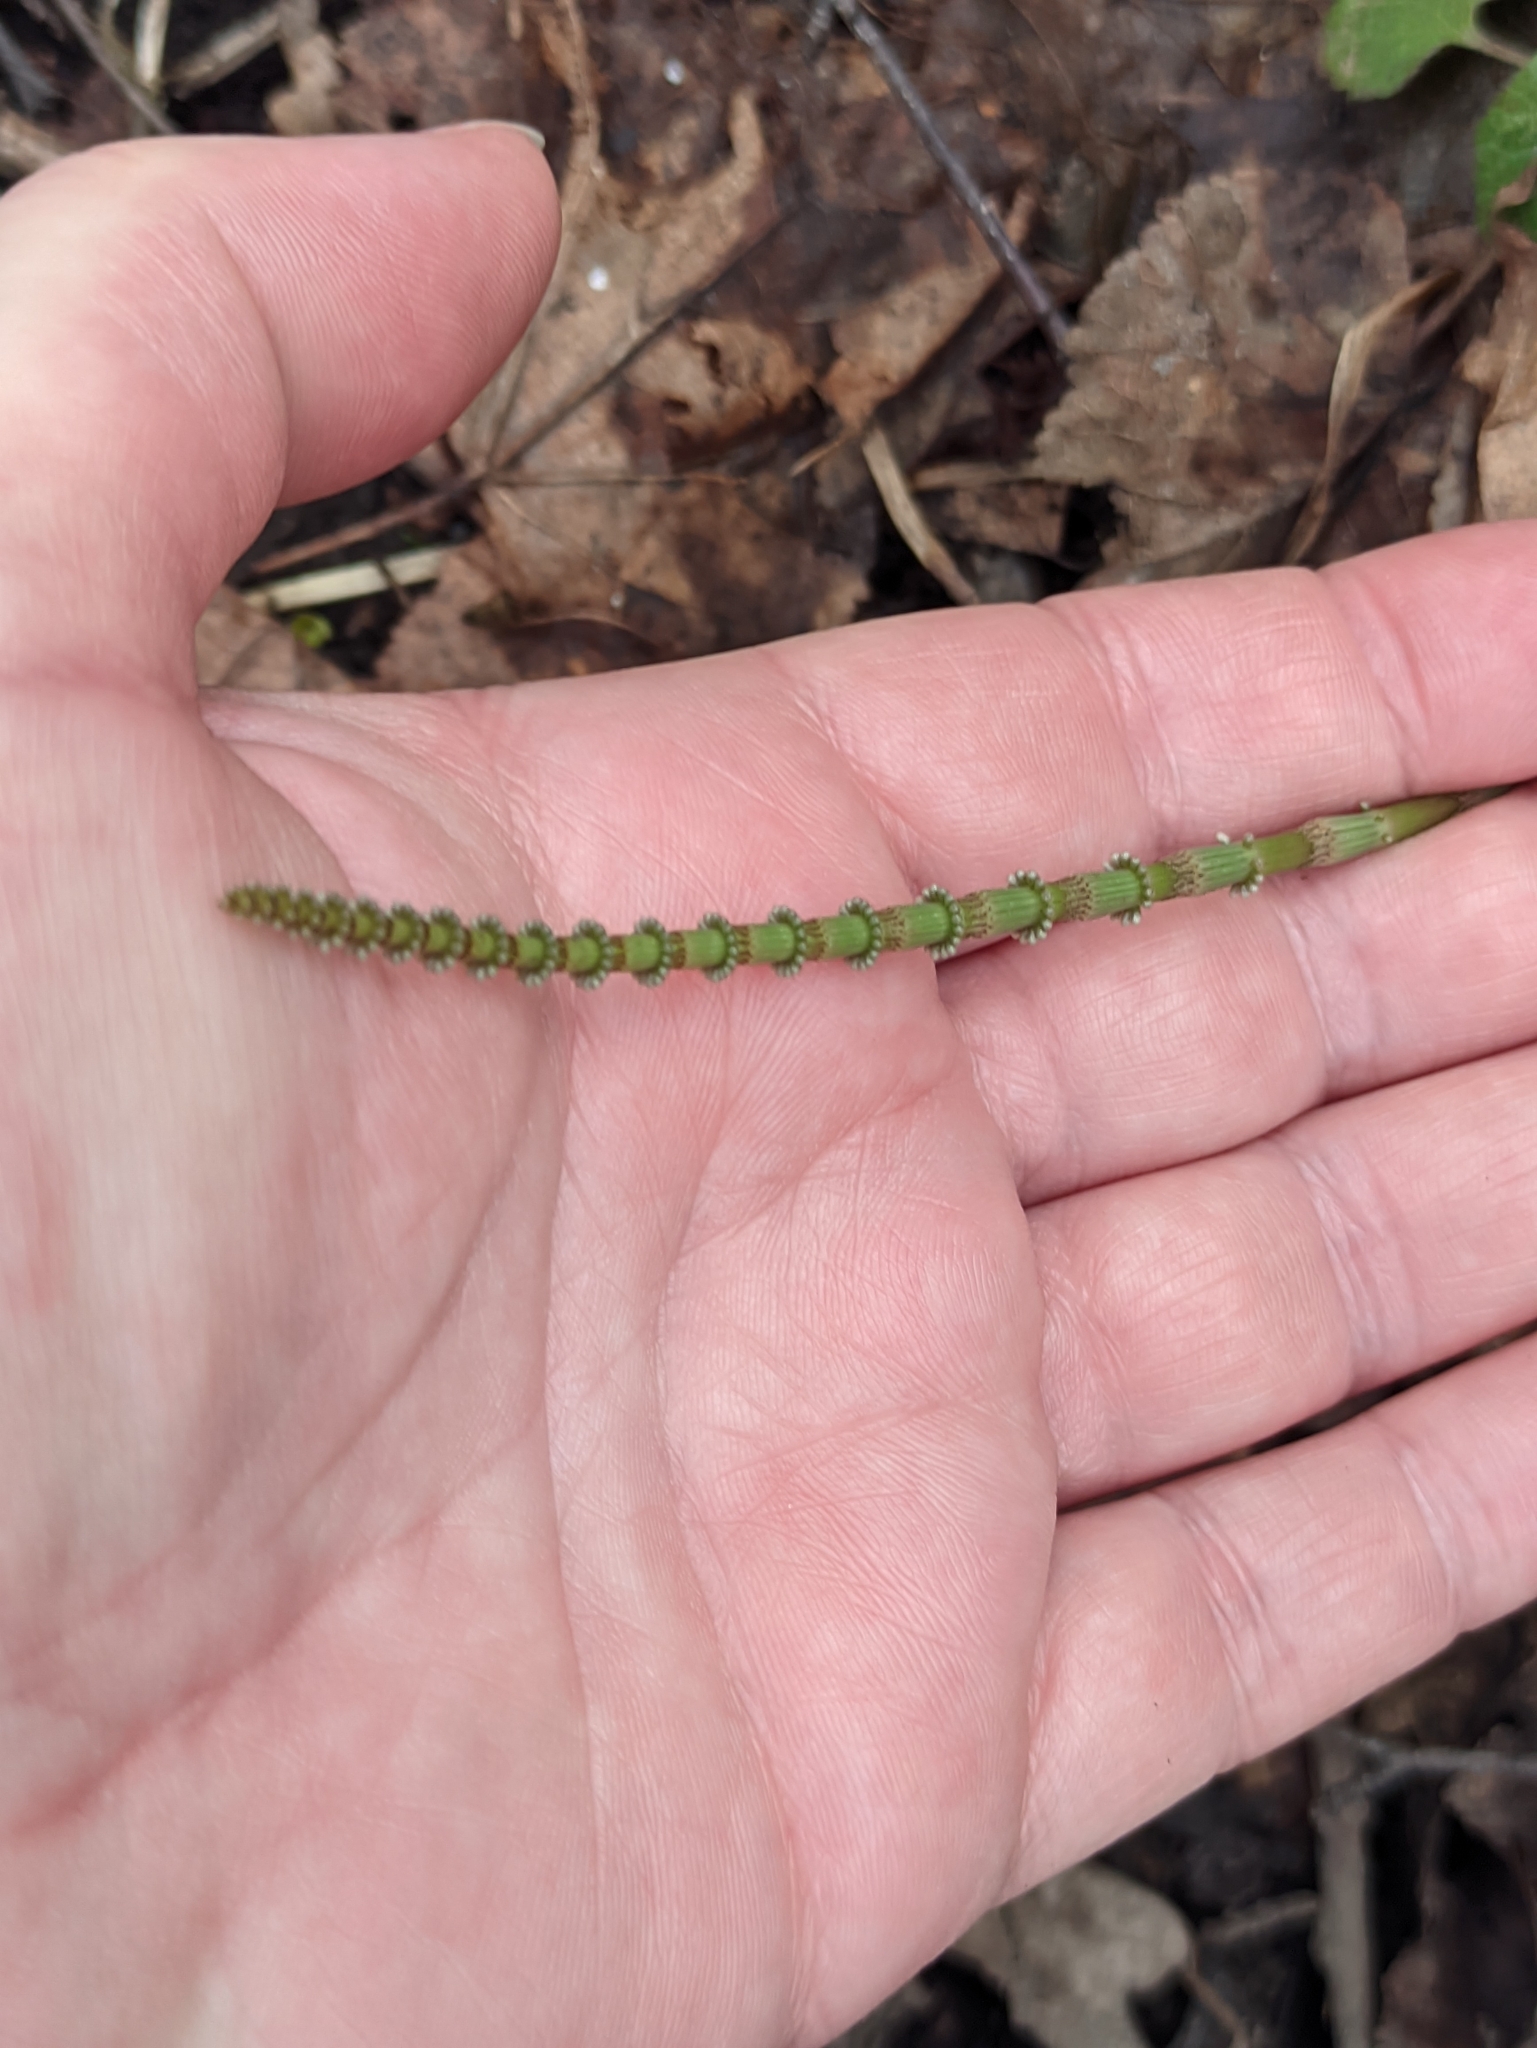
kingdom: Plantae
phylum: Tracheophyta
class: Polypodiopsida
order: Equisetales
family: Equisetaceae
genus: Equisetum
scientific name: Equisetum pratense
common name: Meadow horsetail
